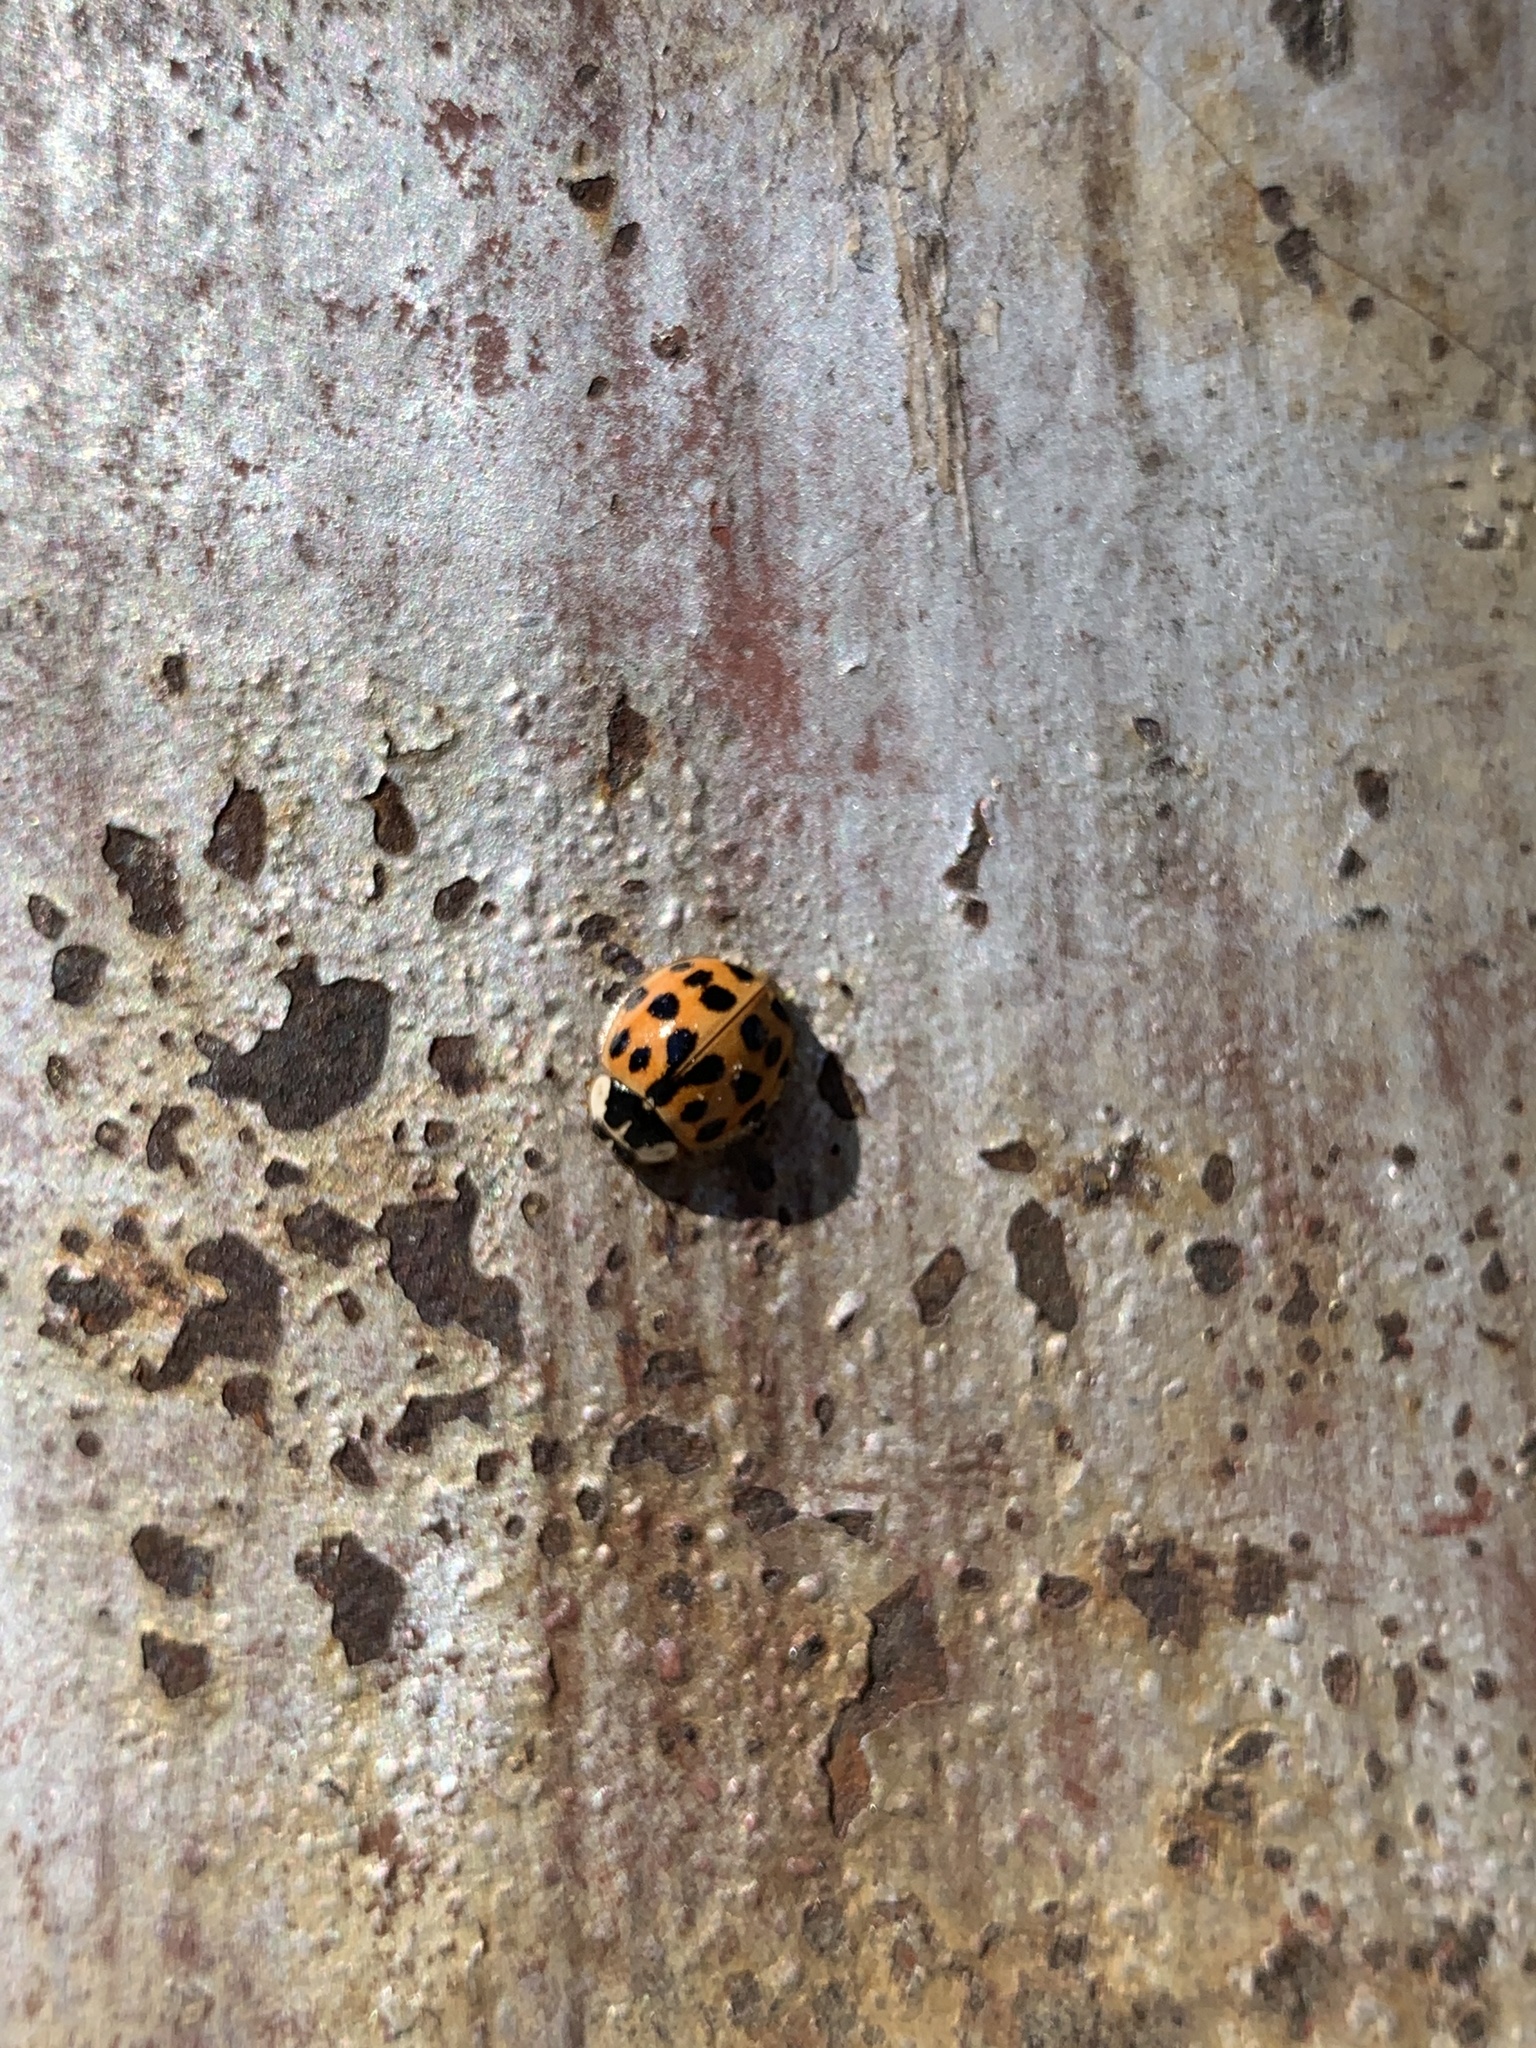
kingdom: Animalia
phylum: Arthropoda
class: Insecta
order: Coleoptera
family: Coccinellidae
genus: Harmonia
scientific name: Harmonia axyridis
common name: Harlequin ladybird
